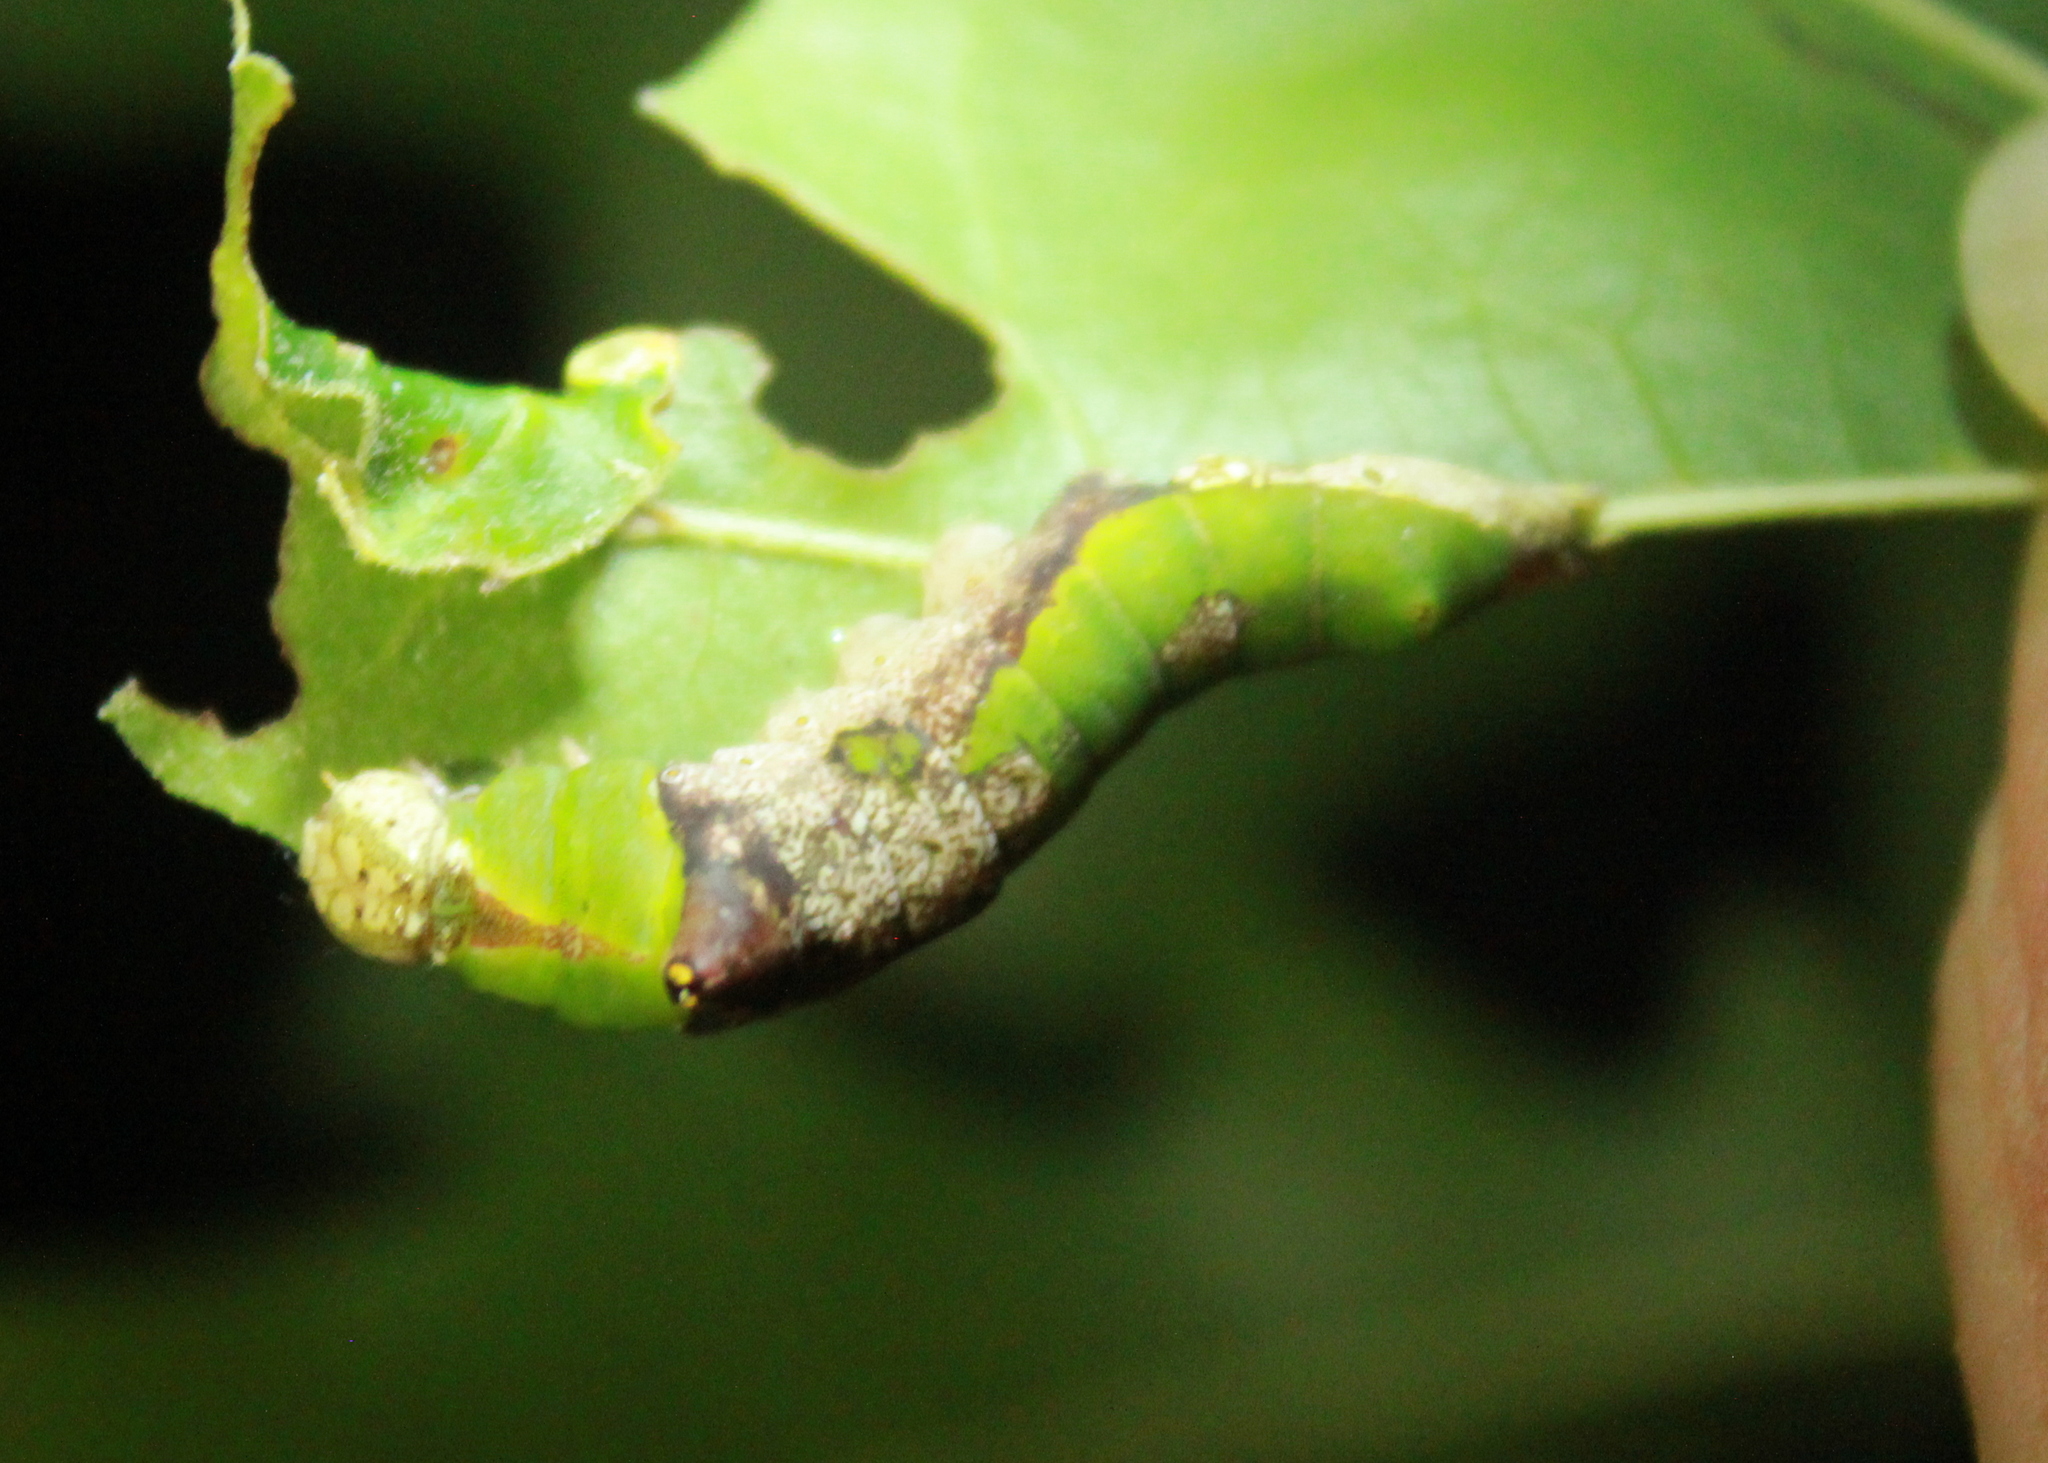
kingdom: Animalia
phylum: Arthropoda
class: Insecta
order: Lepidoptera
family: Notodontidae
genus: Oligocentria
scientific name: Oligocentria Ianassa lignicolor
